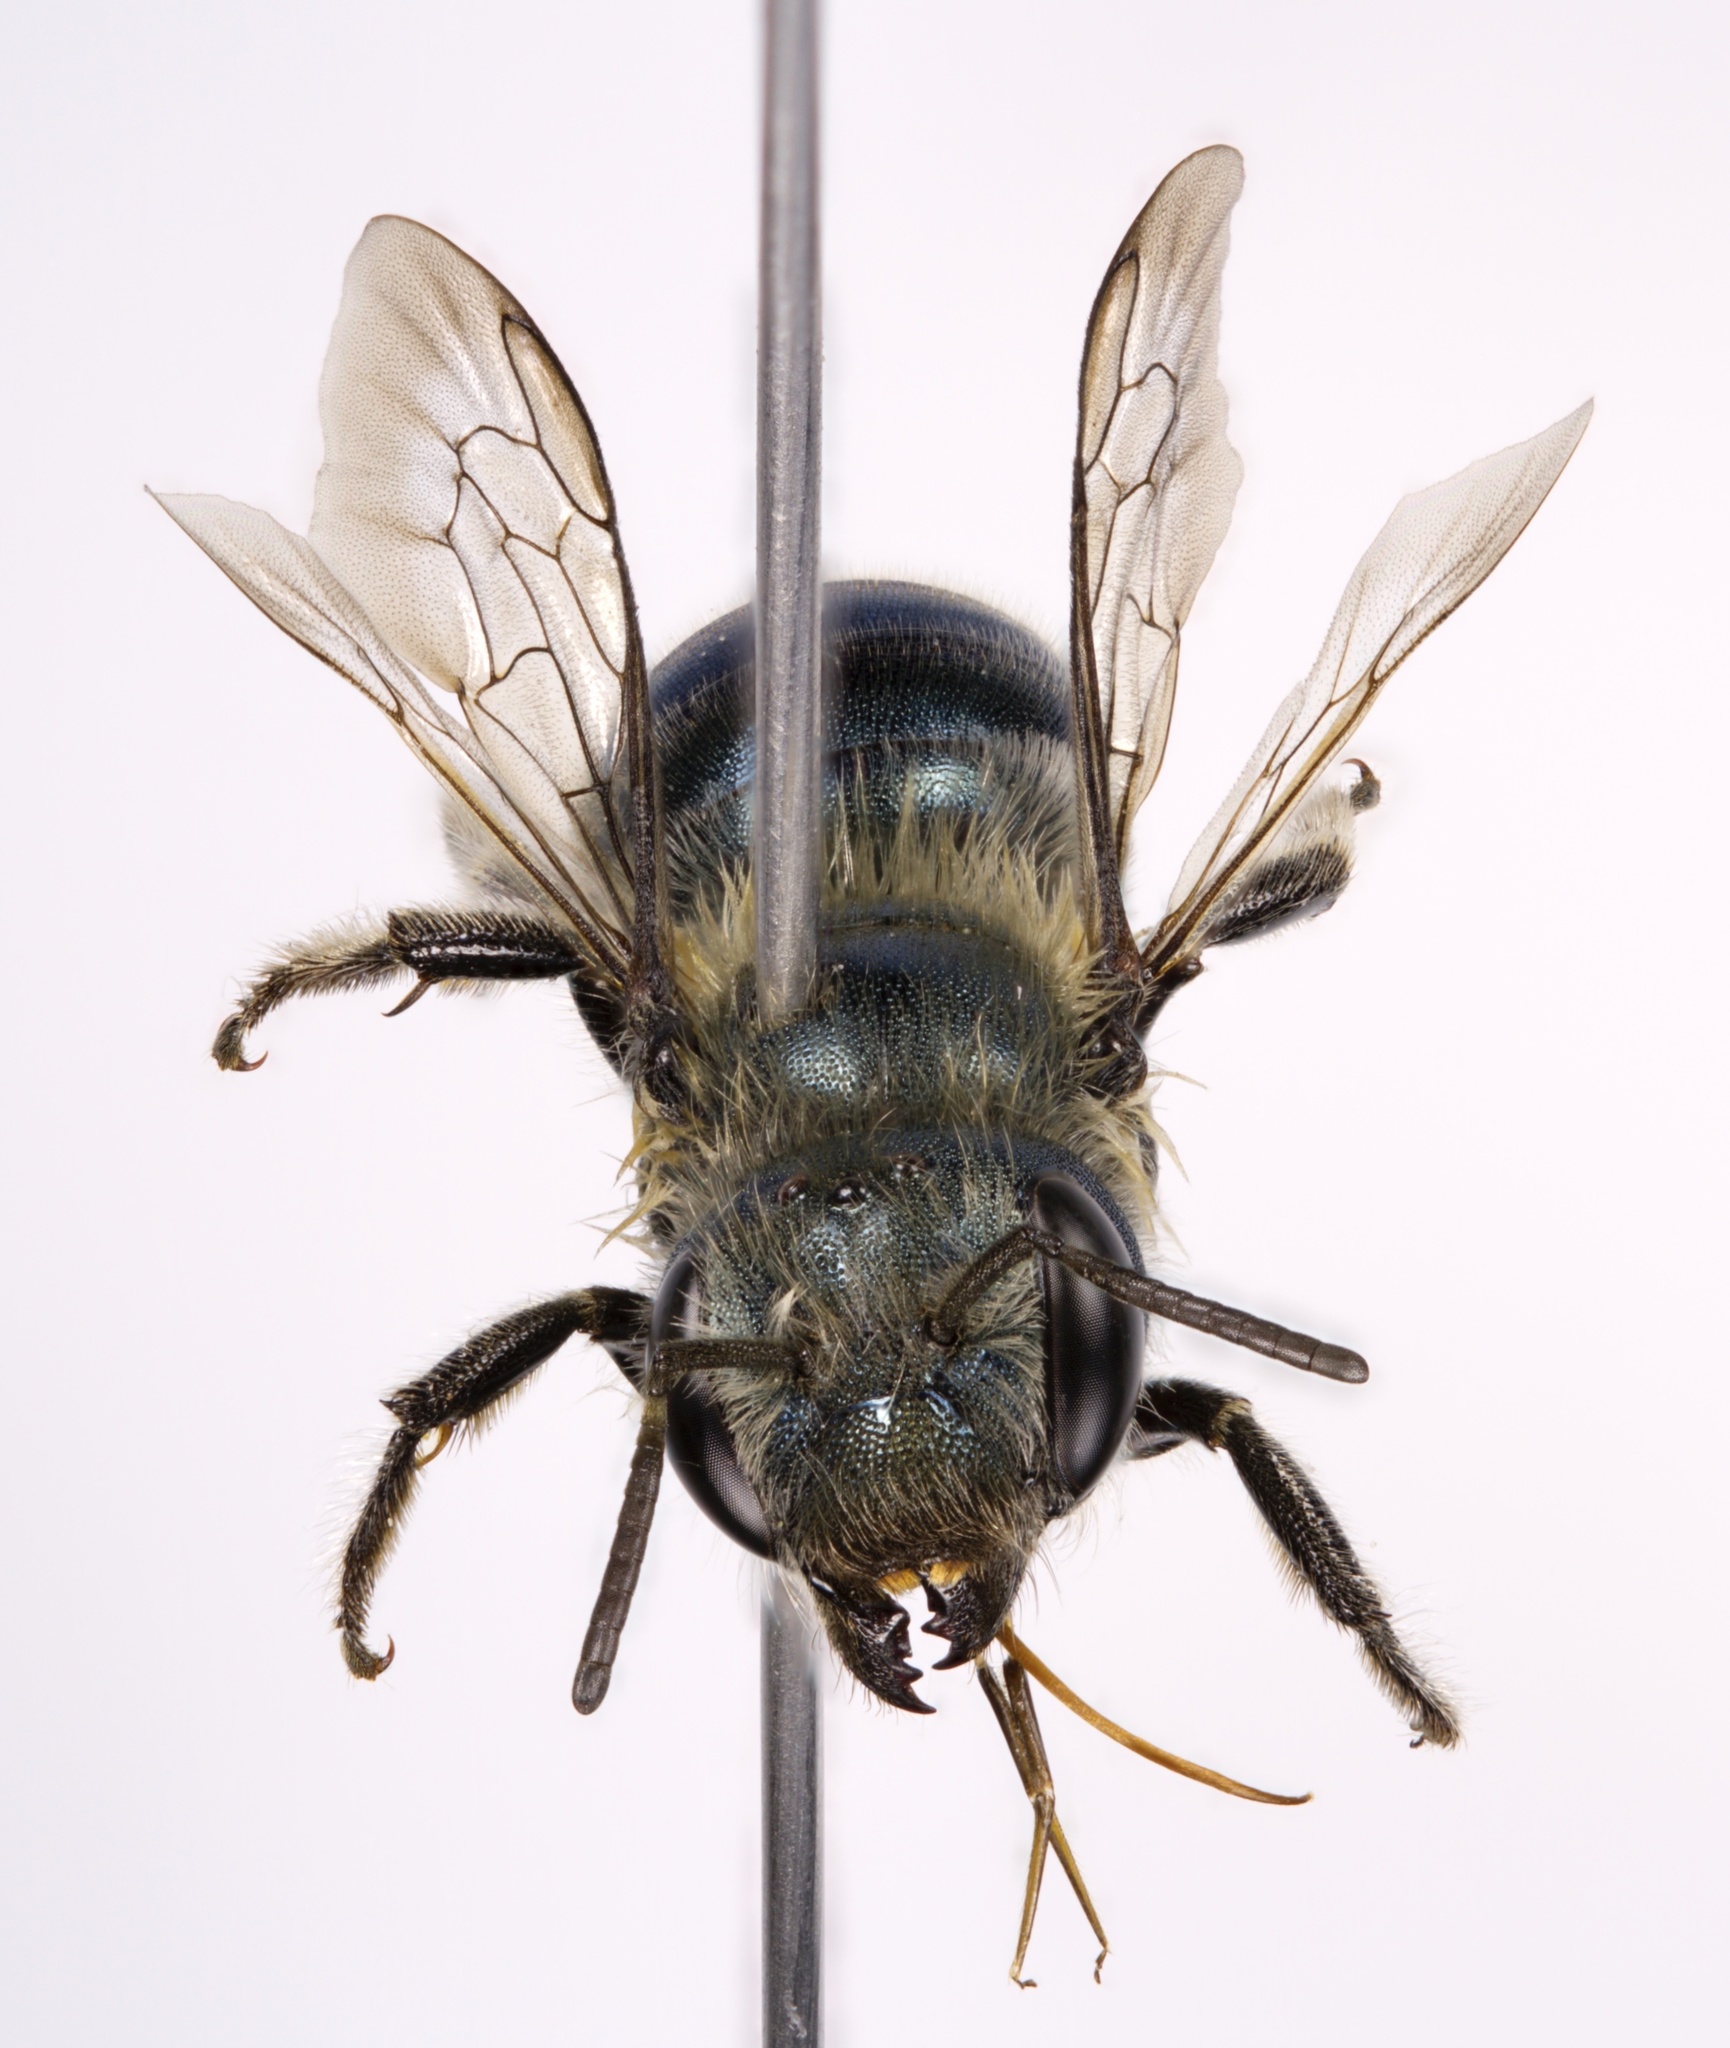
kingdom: Animalia
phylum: Arthropoda
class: Insecta
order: Hymenoptera
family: Megachilidae
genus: Osmia
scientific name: Osmia inspergens
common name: Shiny-faced mason bee
